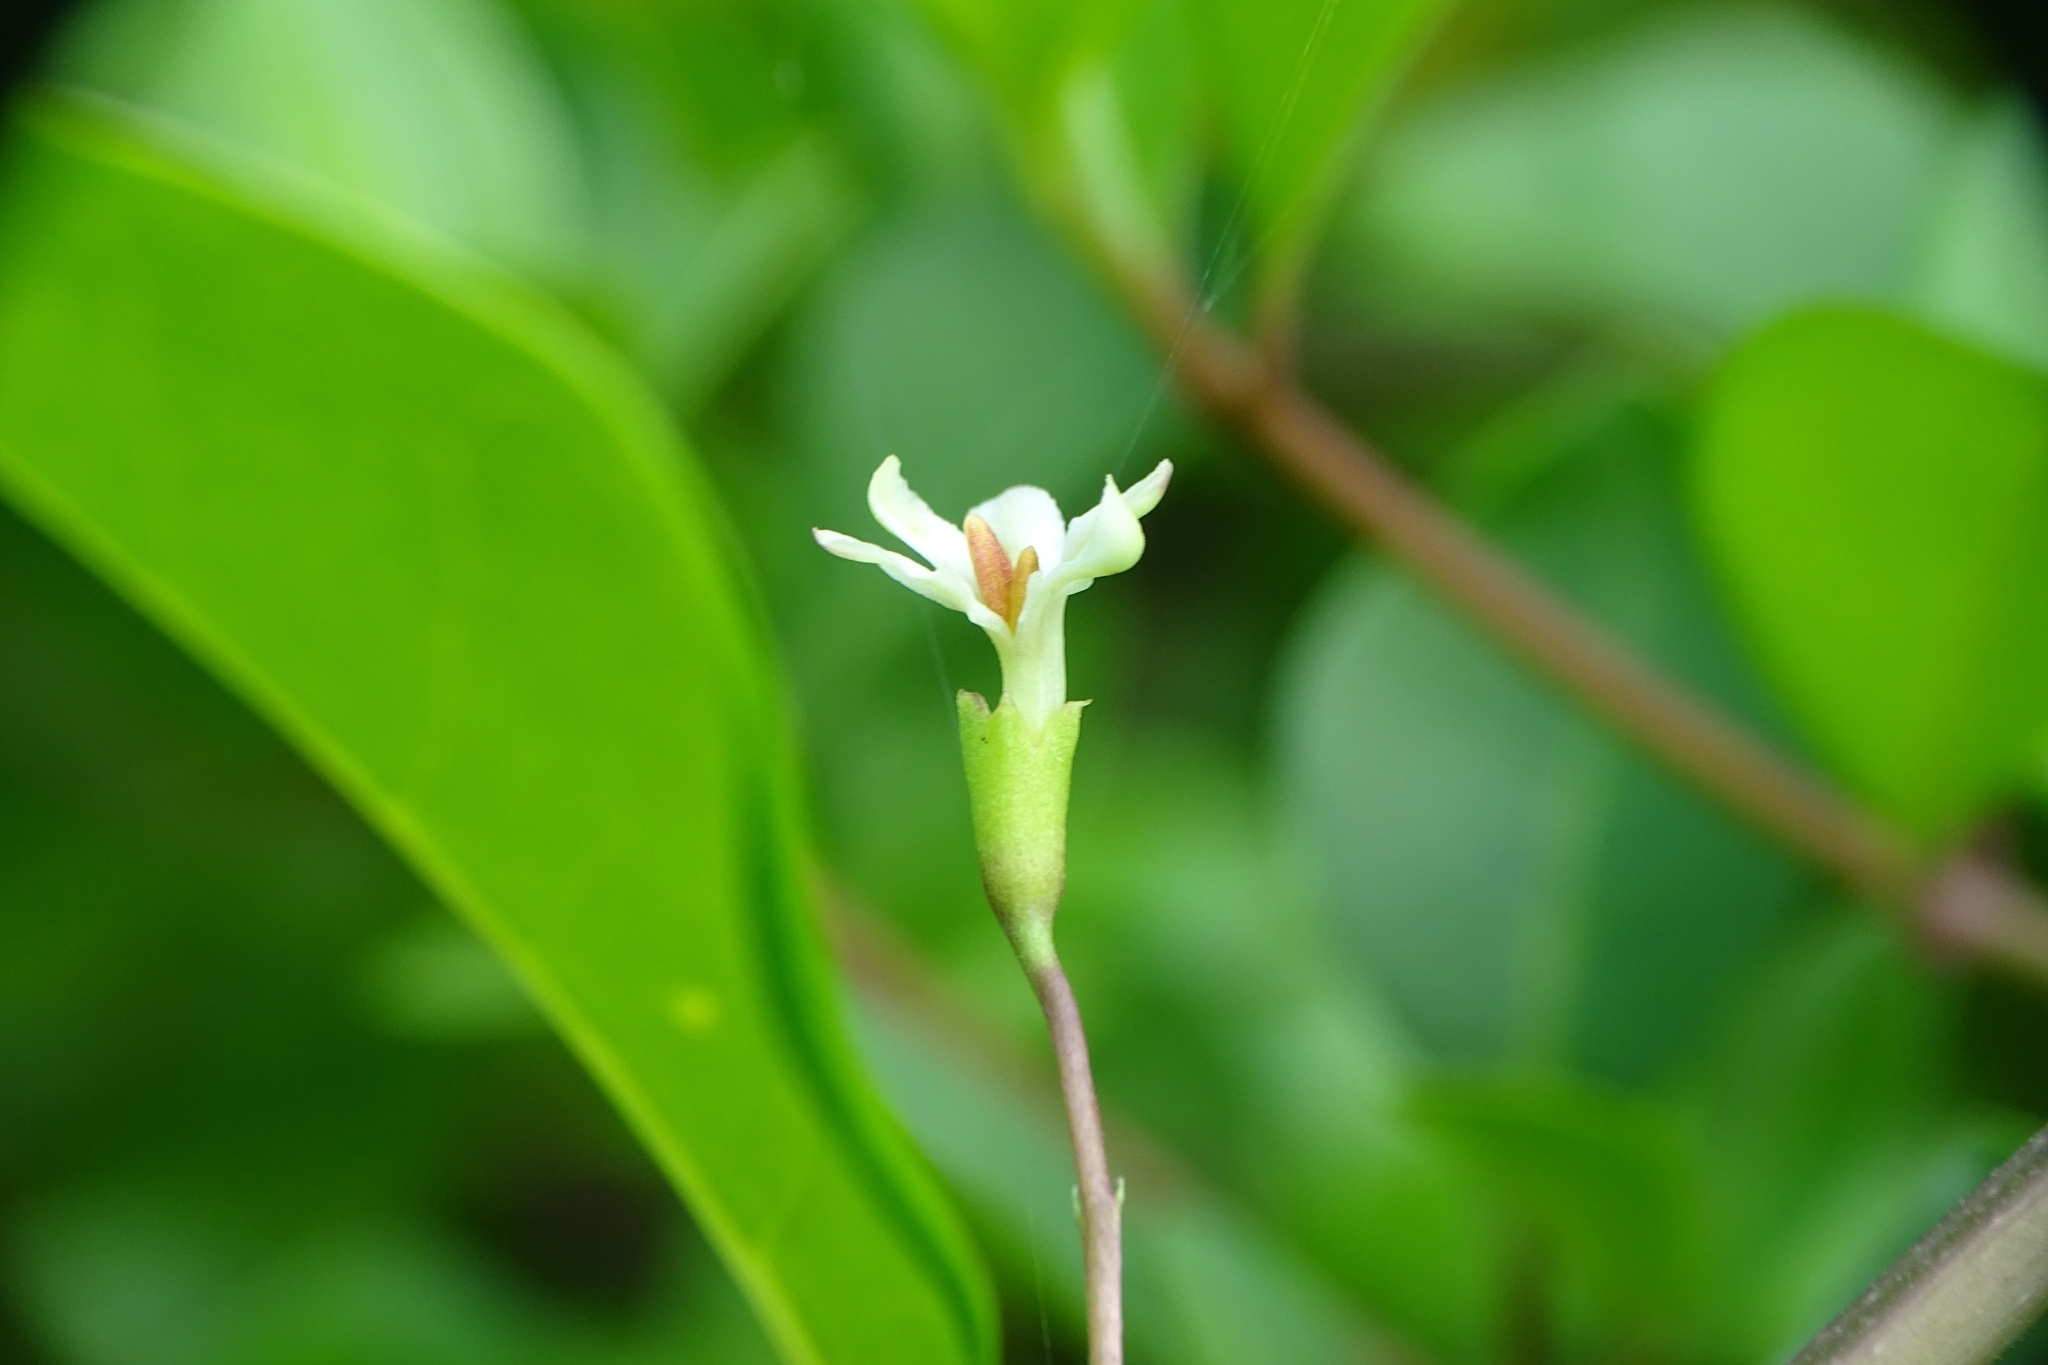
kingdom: Plantae
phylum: Tracheophyta
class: Magnoliopsida
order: Lamiales
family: Lamiaceae
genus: Volkameria
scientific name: Volkameria inermis
